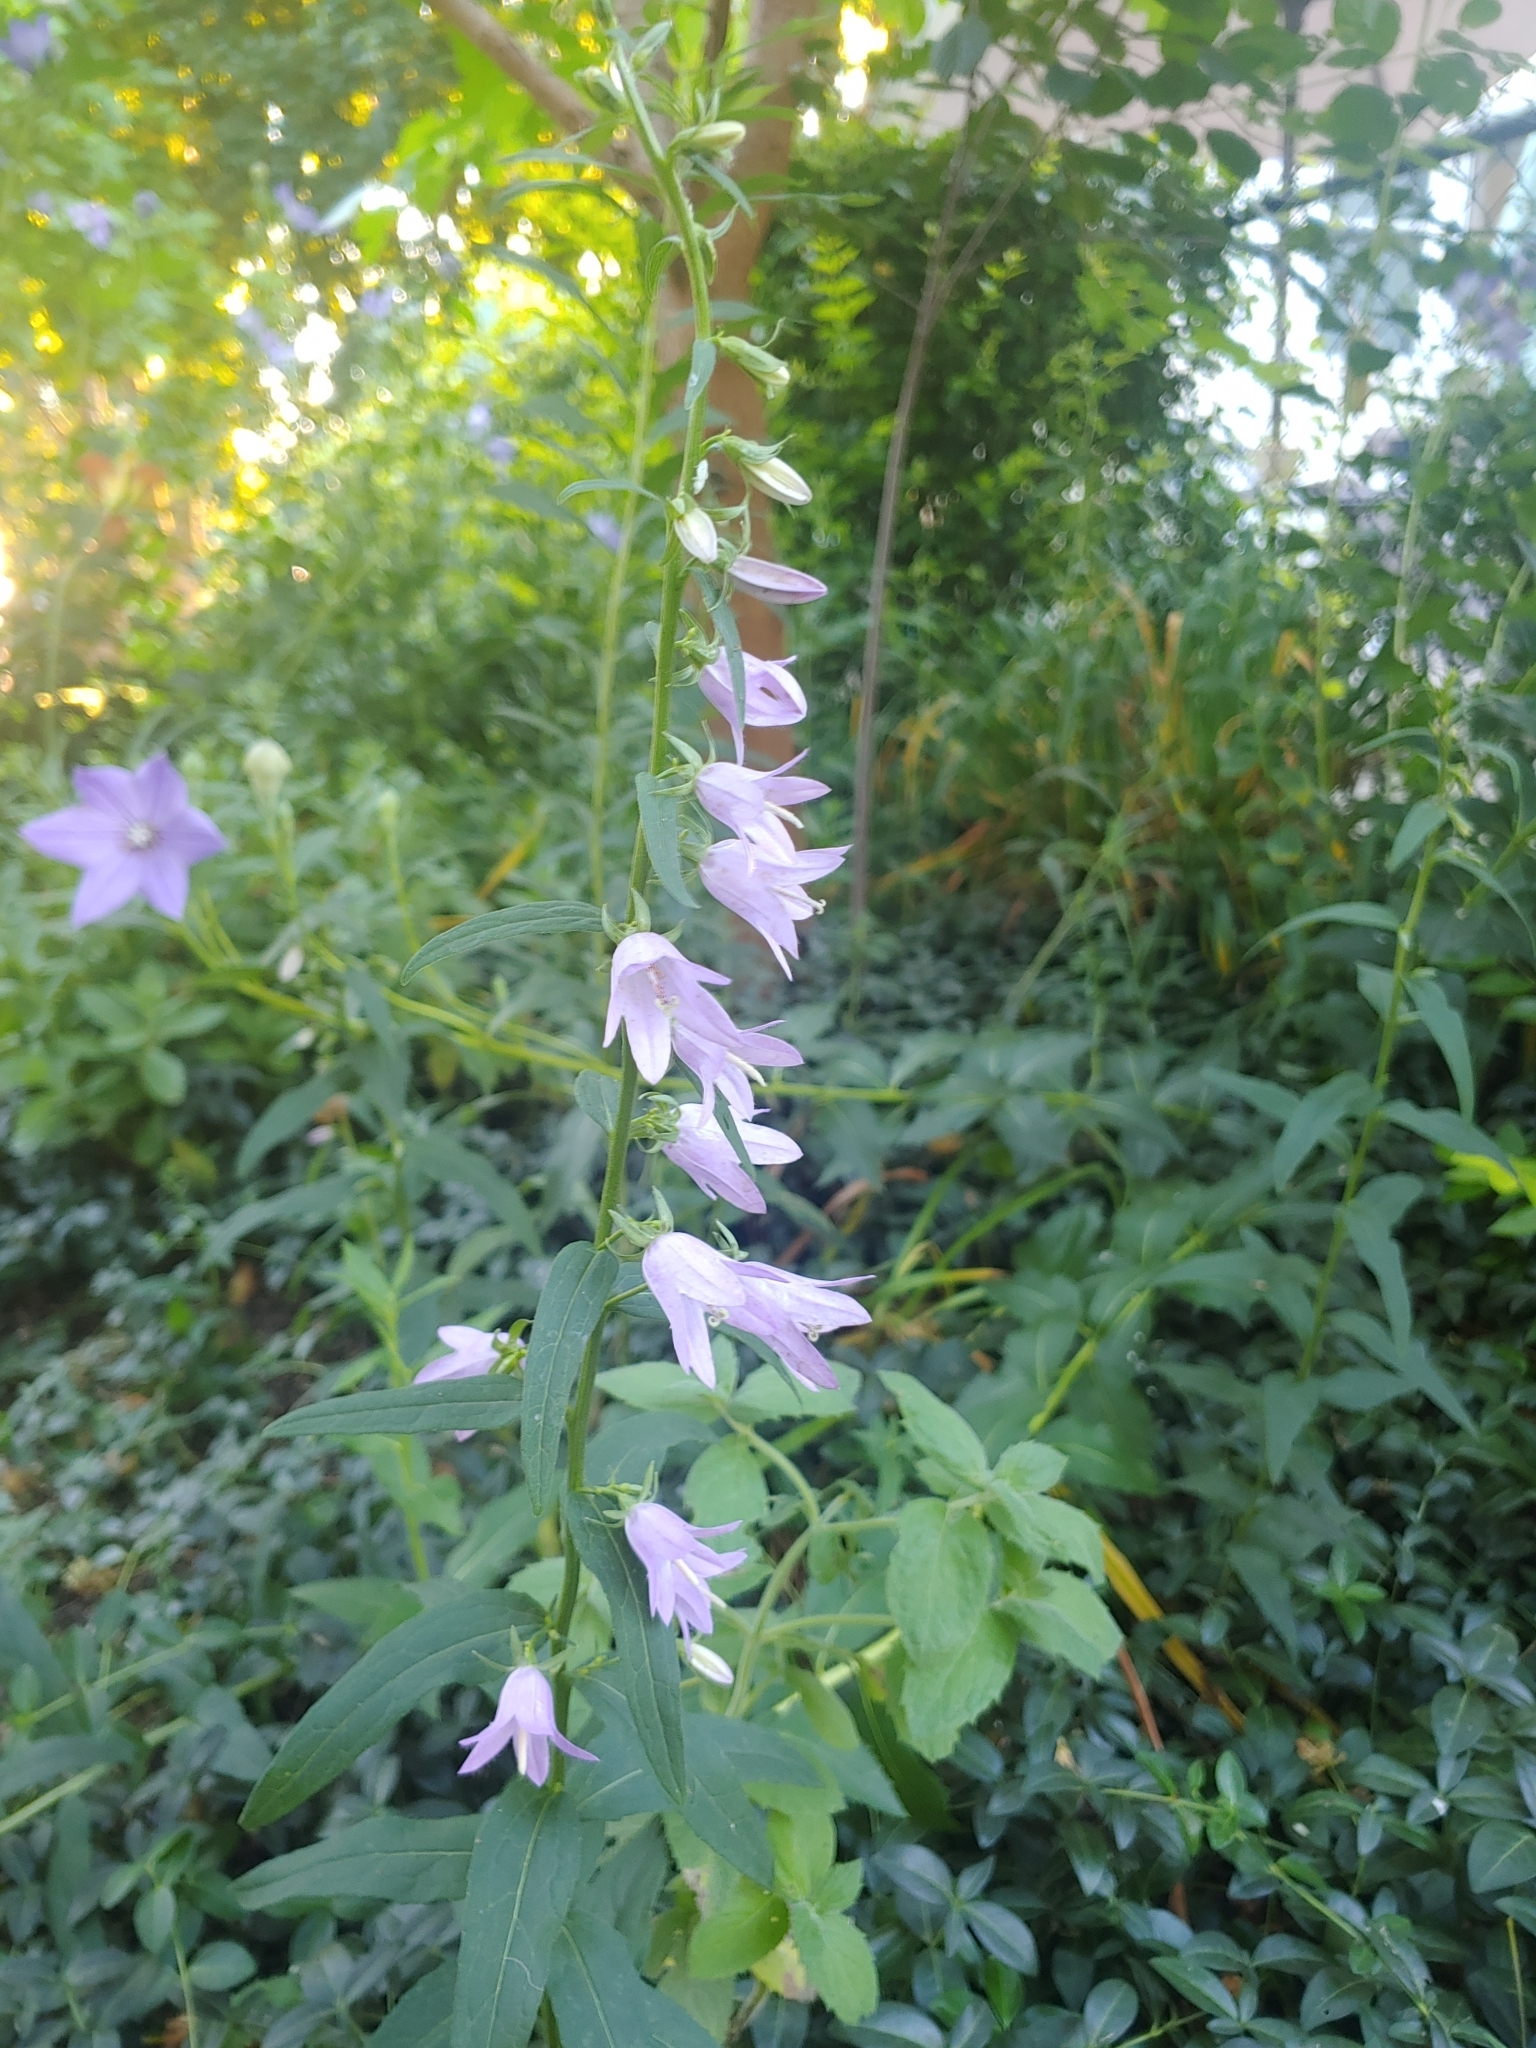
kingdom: Plantae
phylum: Tracheophyta
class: Magnoliopsida
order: Asterales
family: Campanulaceae
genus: Campanula
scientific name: Campanula rapunculoides
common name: Creeping bellflower
